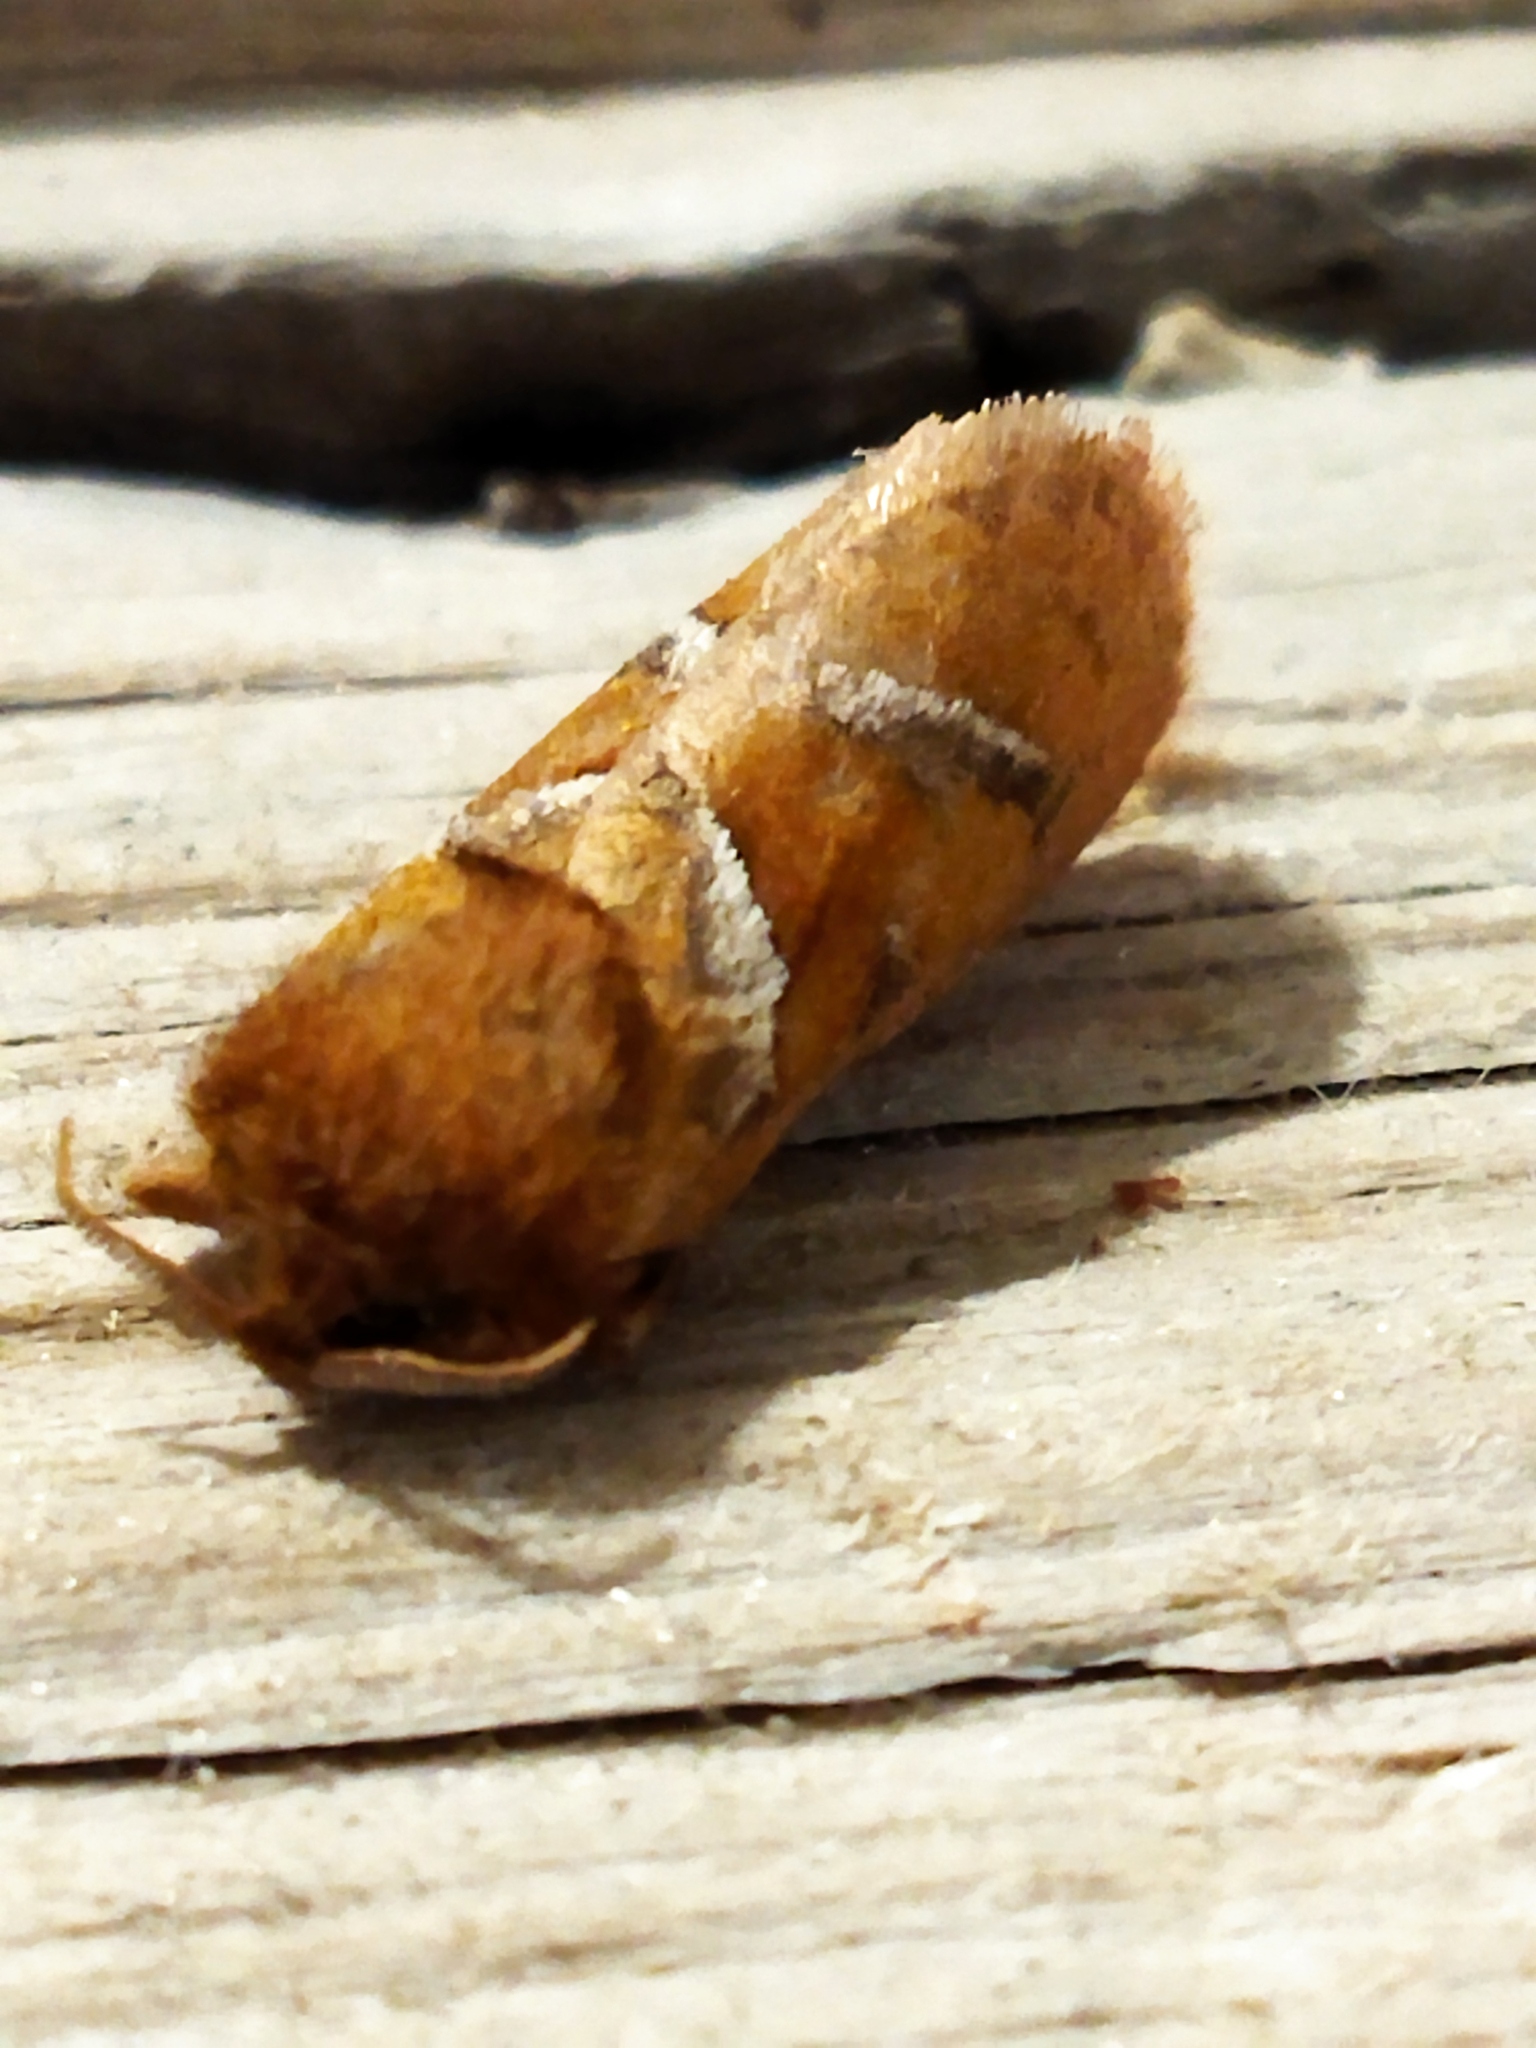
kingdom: Animalia
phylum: Arthropoda
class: Insecta
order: Lepidoptera
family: Hepialidae
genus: Triodia
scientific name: Triodia sylvina
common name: Orange swift
